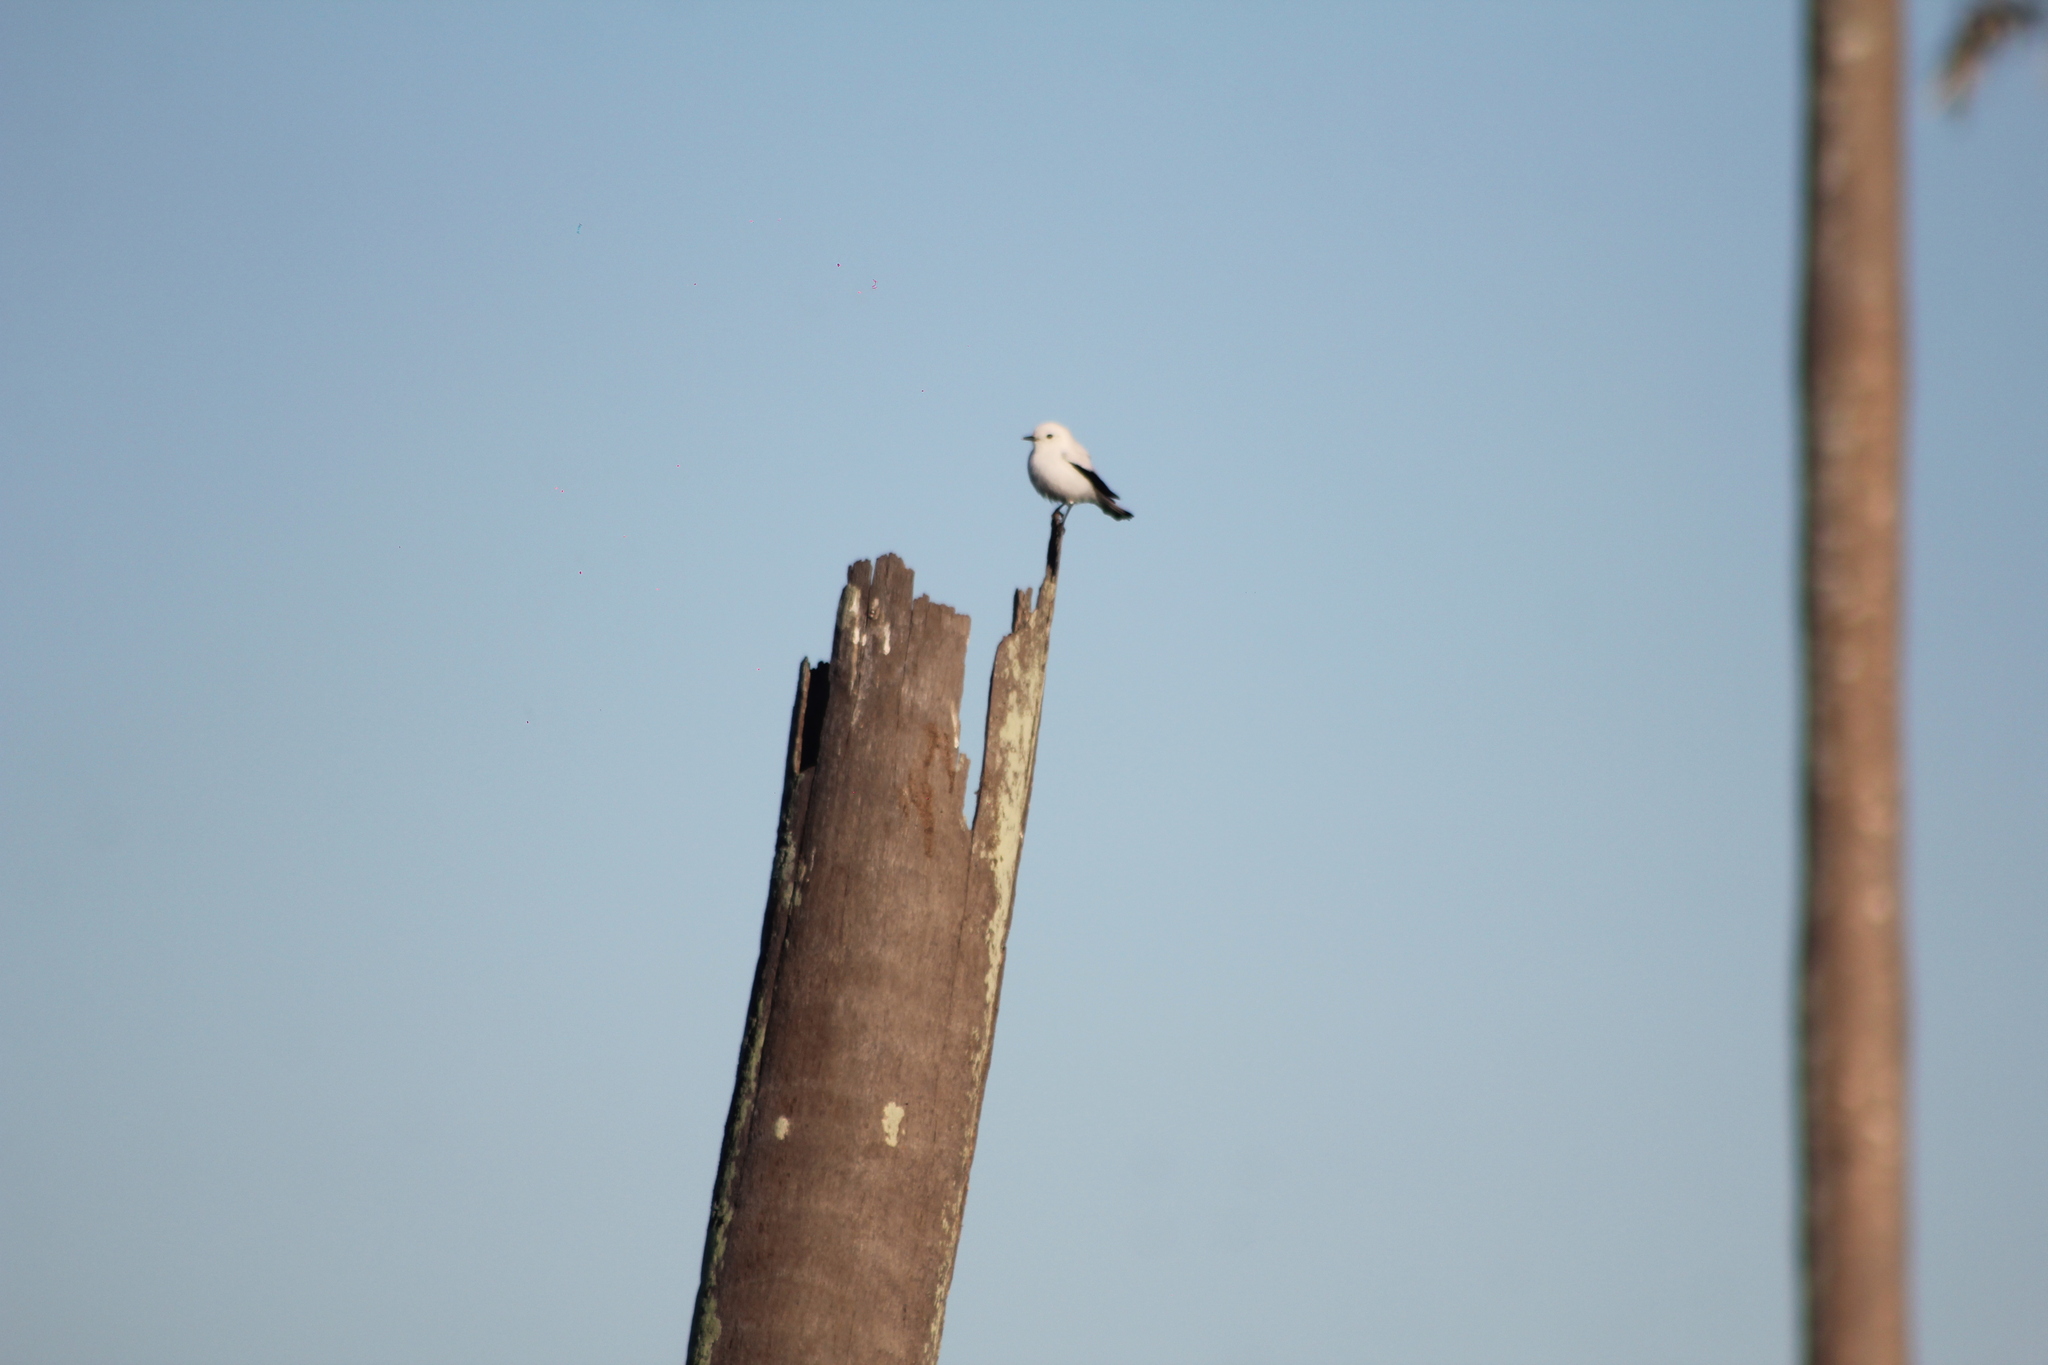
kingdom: Animalia
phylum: Chordata
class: Aves
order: Passeriformes
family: Tyrannidae
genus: Xolmis
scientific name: Xolmis irupero
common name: White monjita
